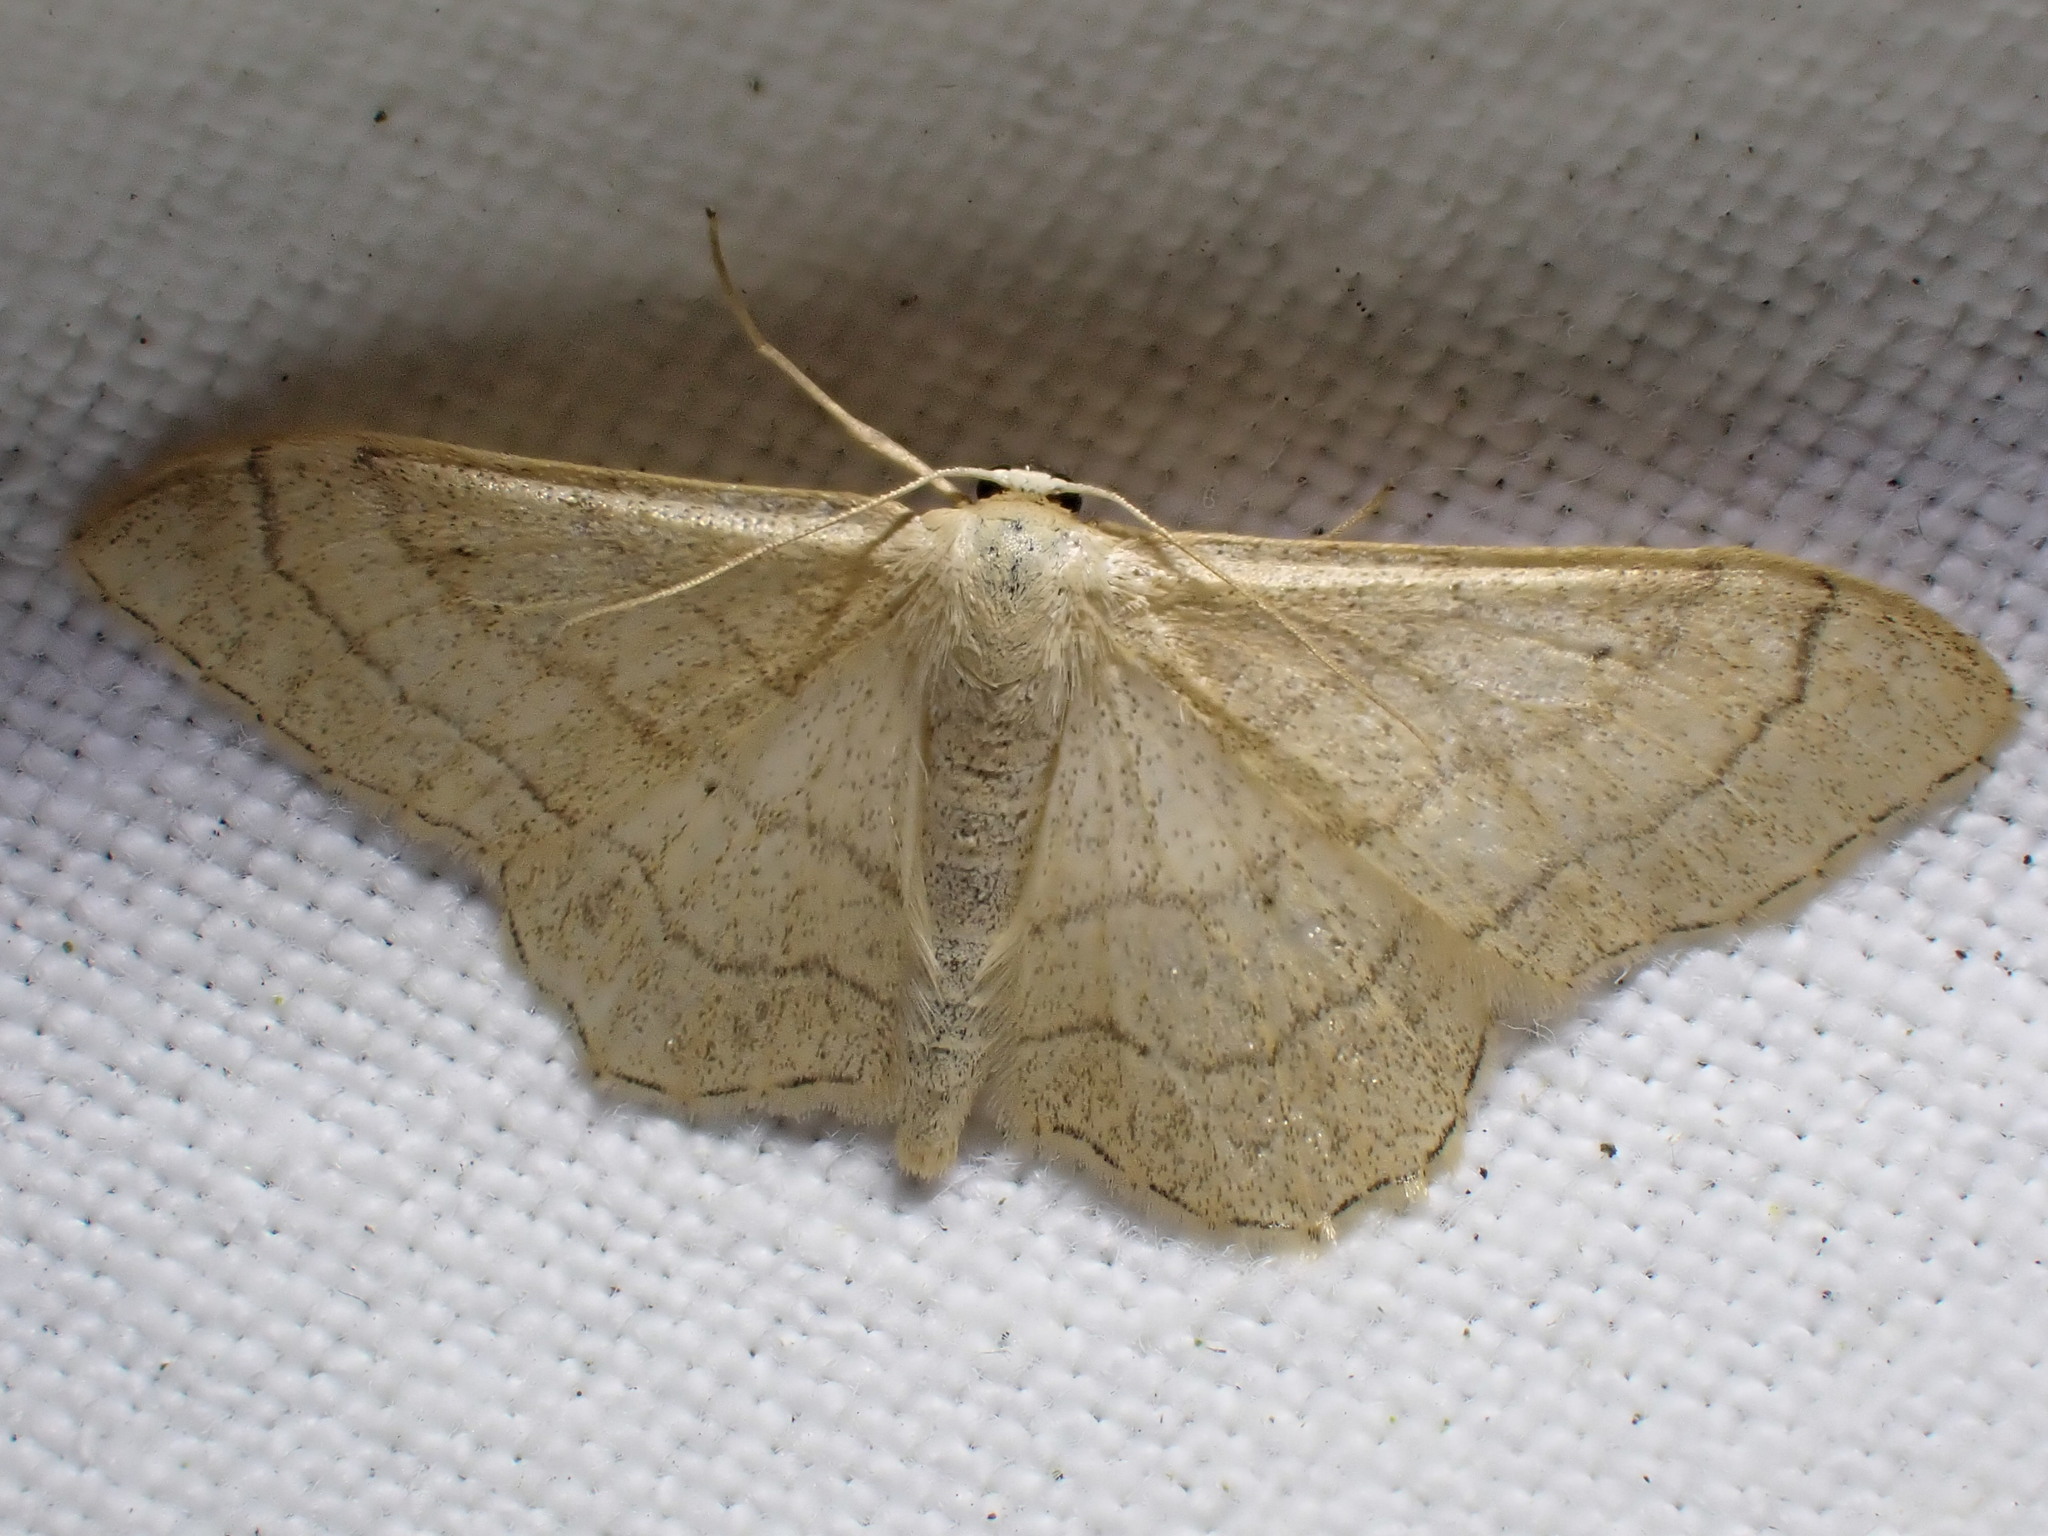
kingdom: Animalia
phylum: Arthropoda
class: Insecta
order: Lepidoptera
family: Geometridae
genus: Idaea
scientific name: Idaea aversata
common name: Riband wave
